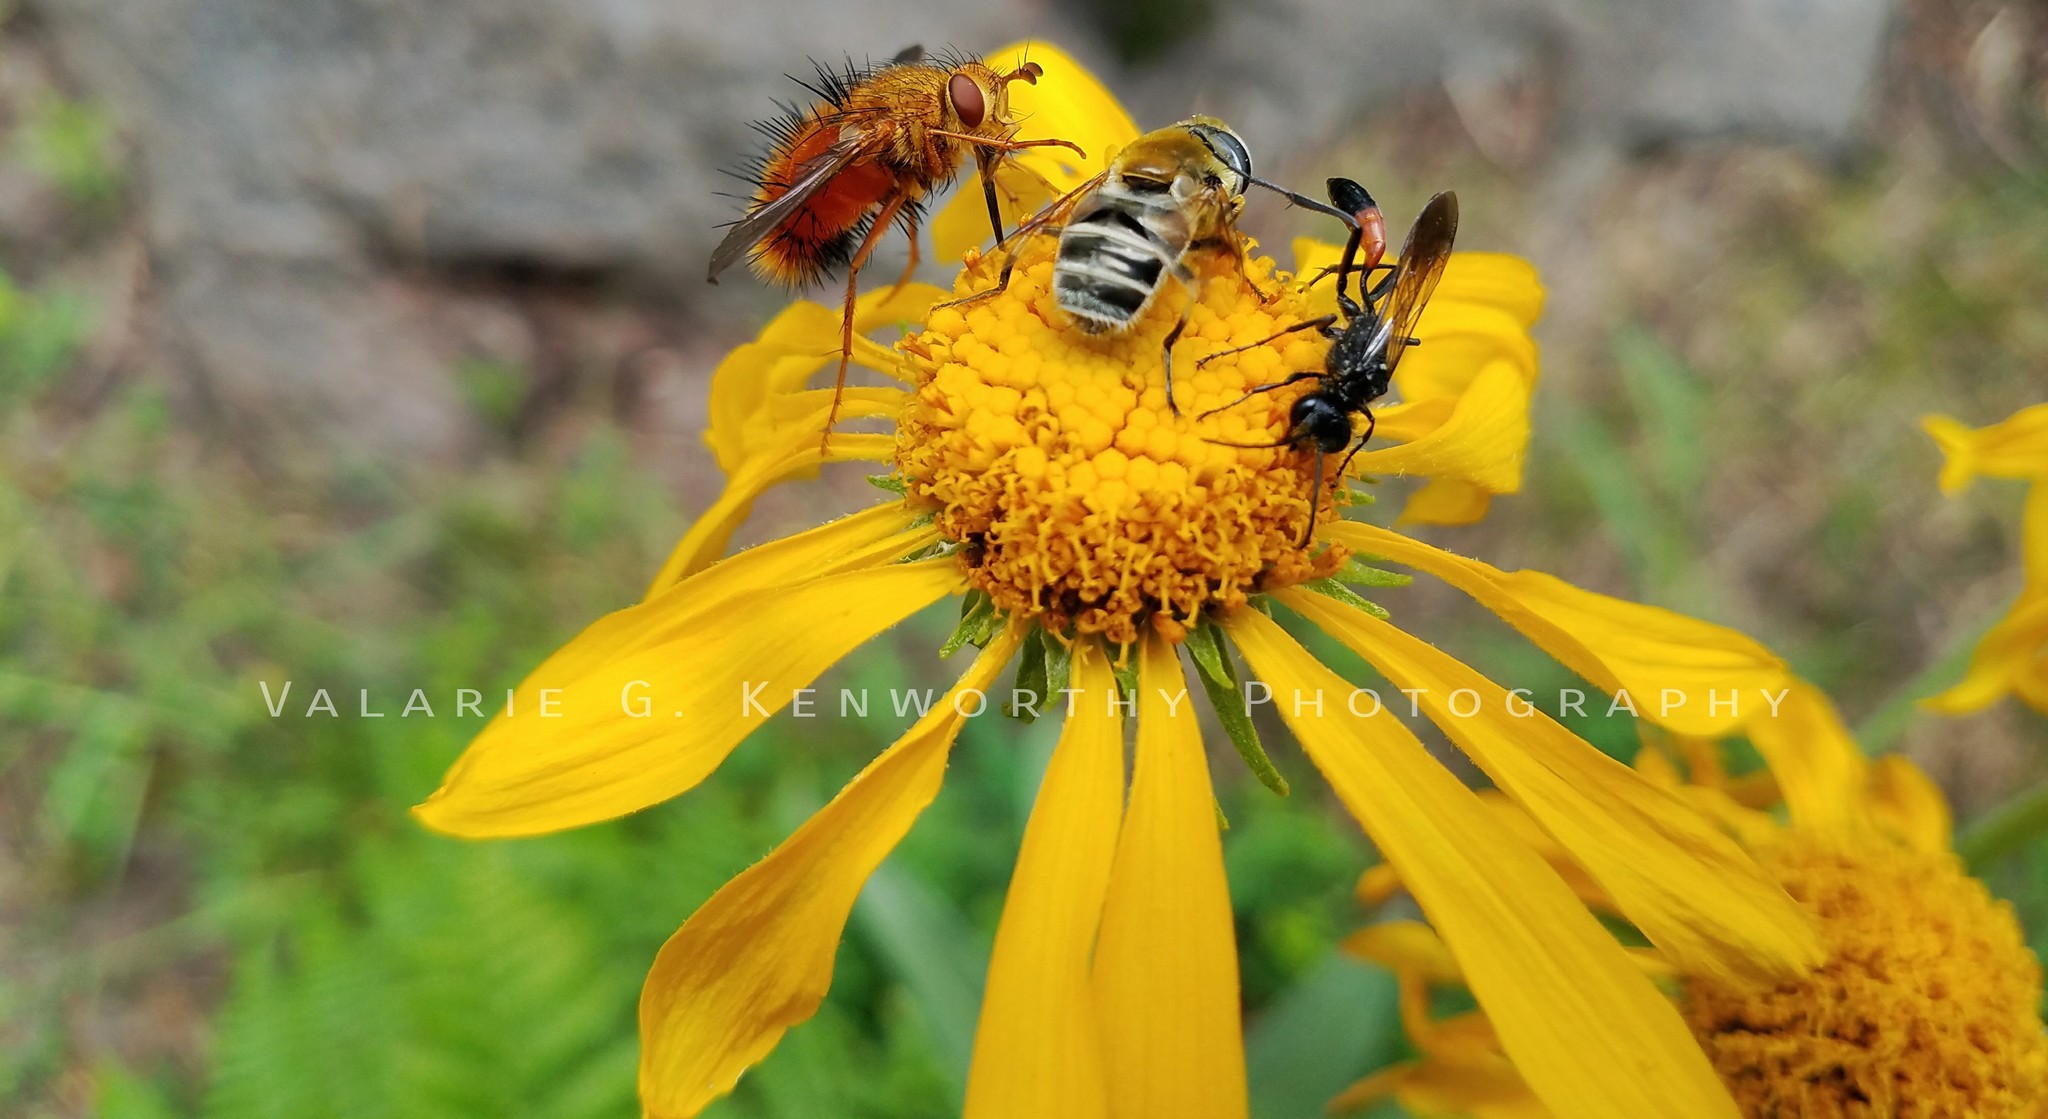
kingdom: Animalia
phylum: Arthropoda
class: Insecta
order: Diptera
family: Tachinidae
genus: Adejeania
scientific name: Adejeania vexatrix
